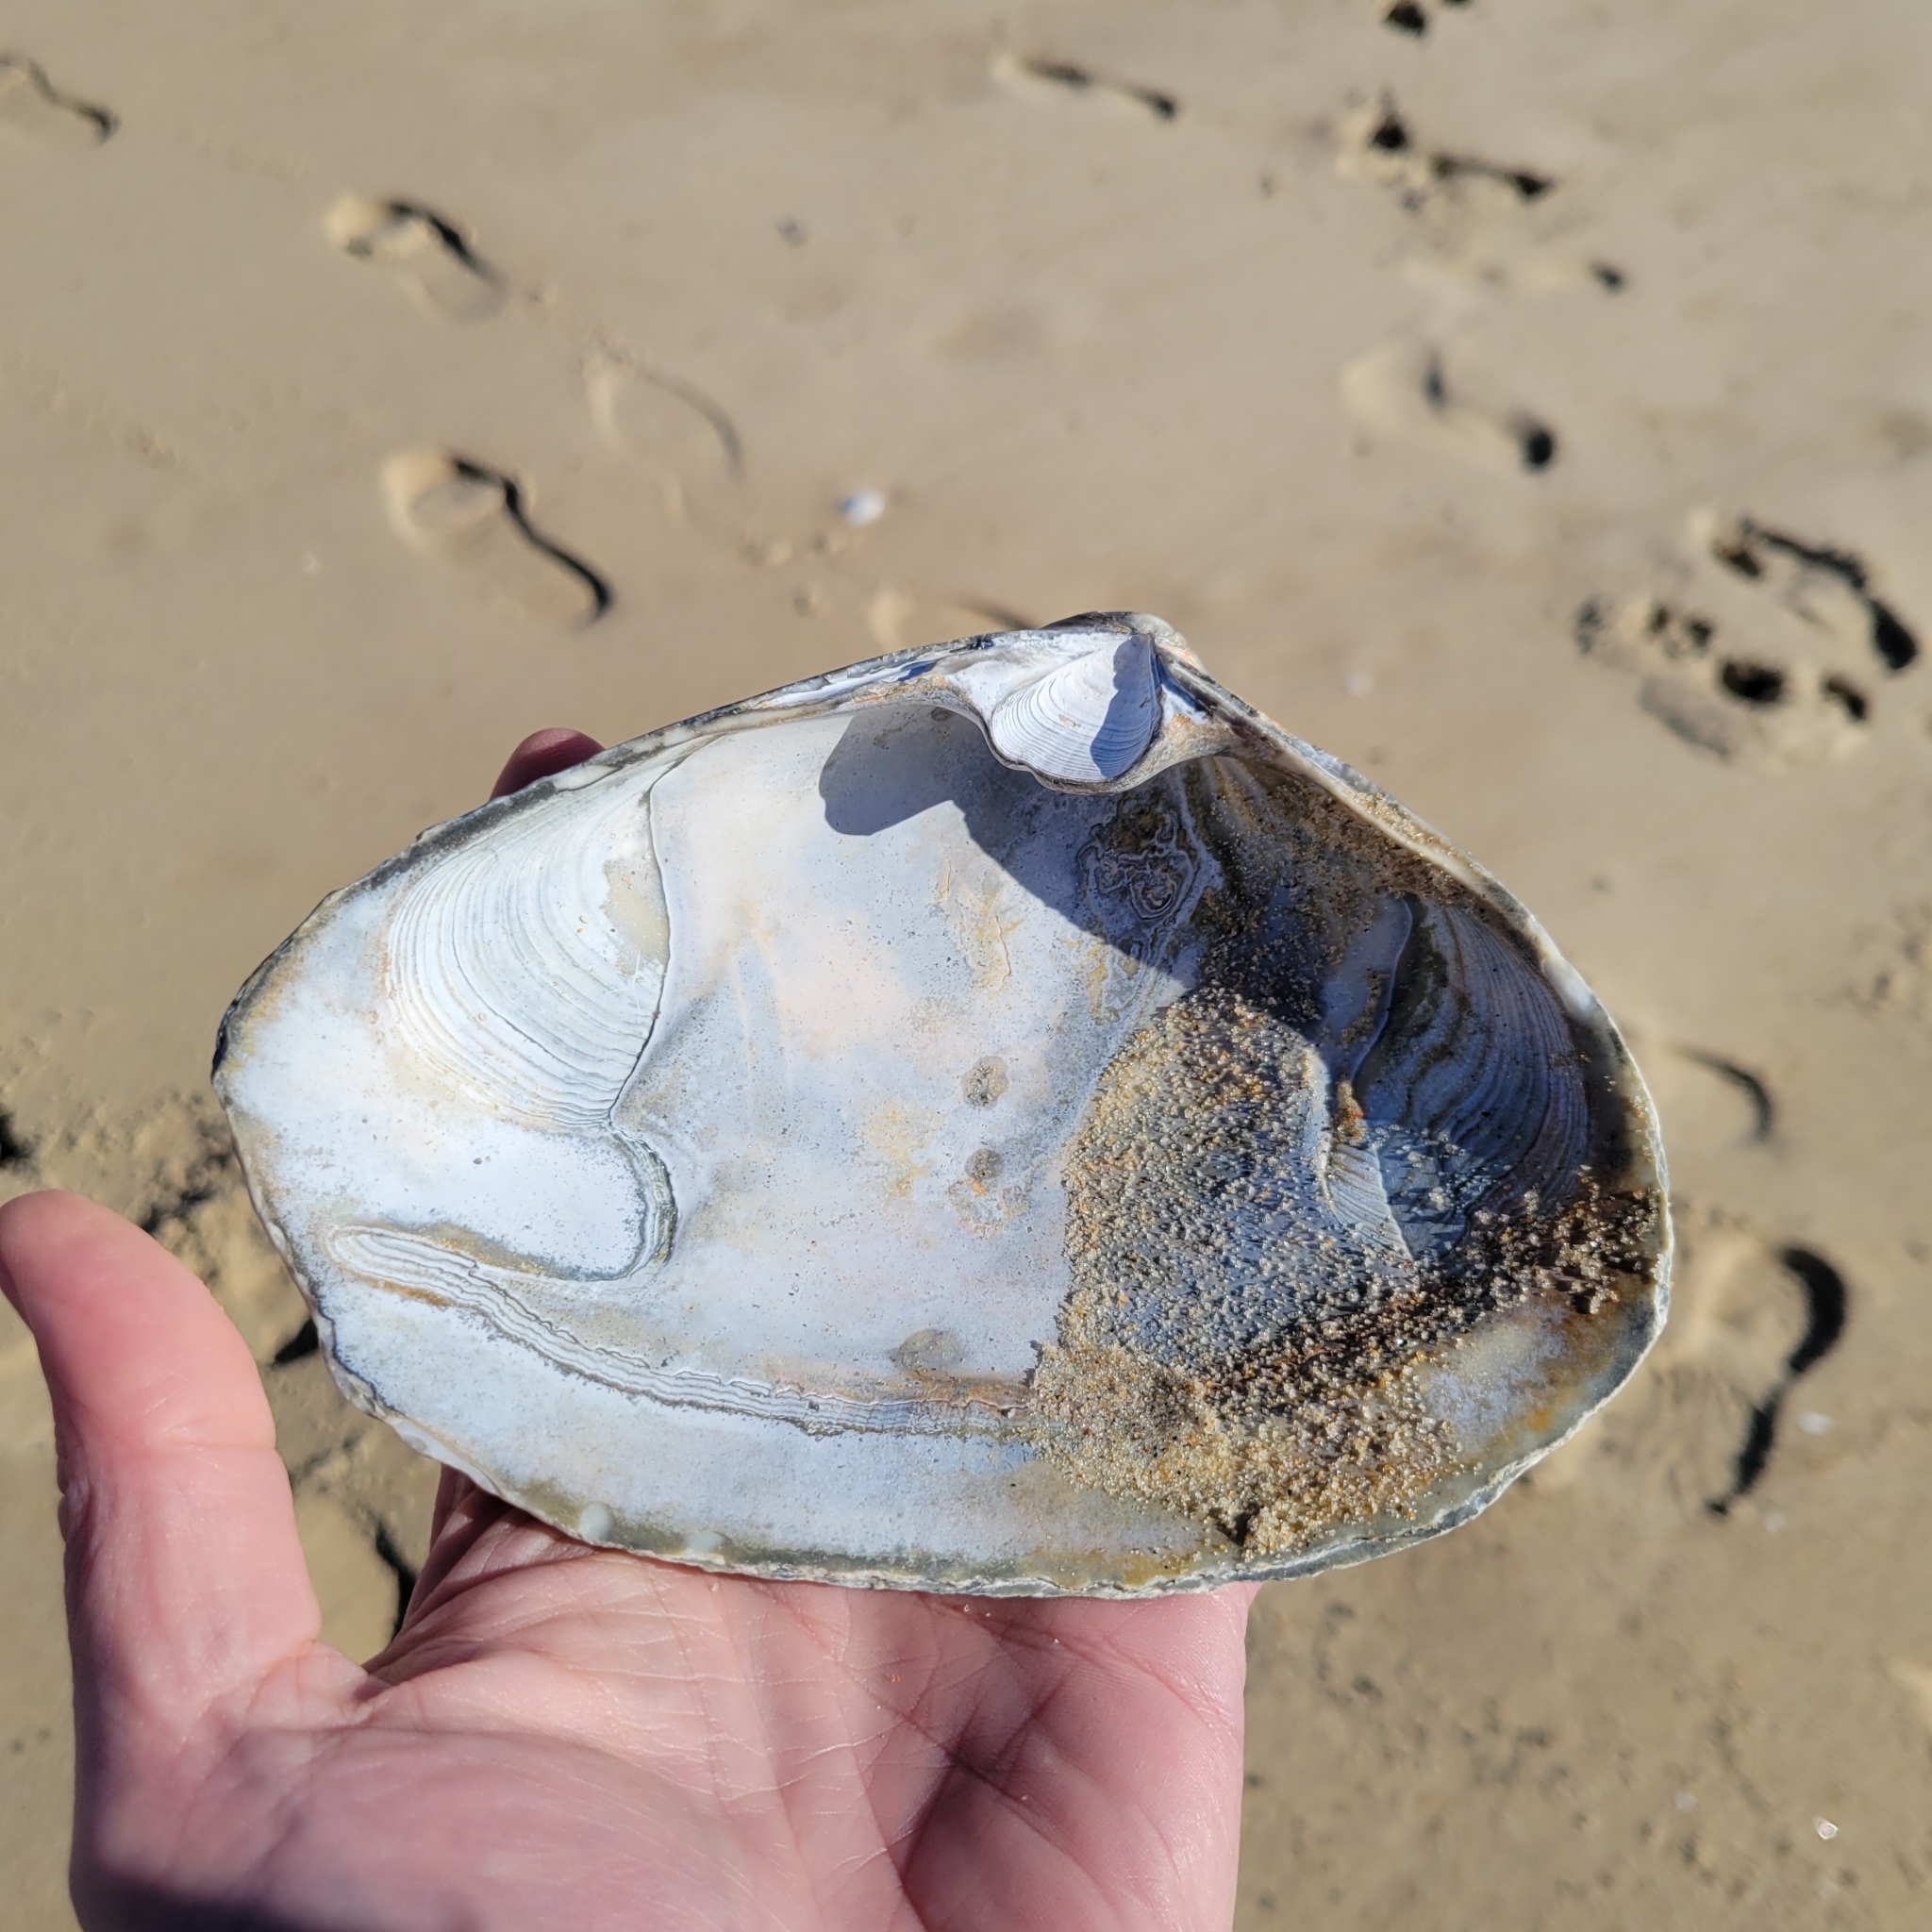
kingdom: Animalia
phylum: Mollusca
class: Bivalvia
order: Venerida
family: Mactridae
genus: Spisula
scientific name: Spisula solidissima
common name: Atlantic surf clam
